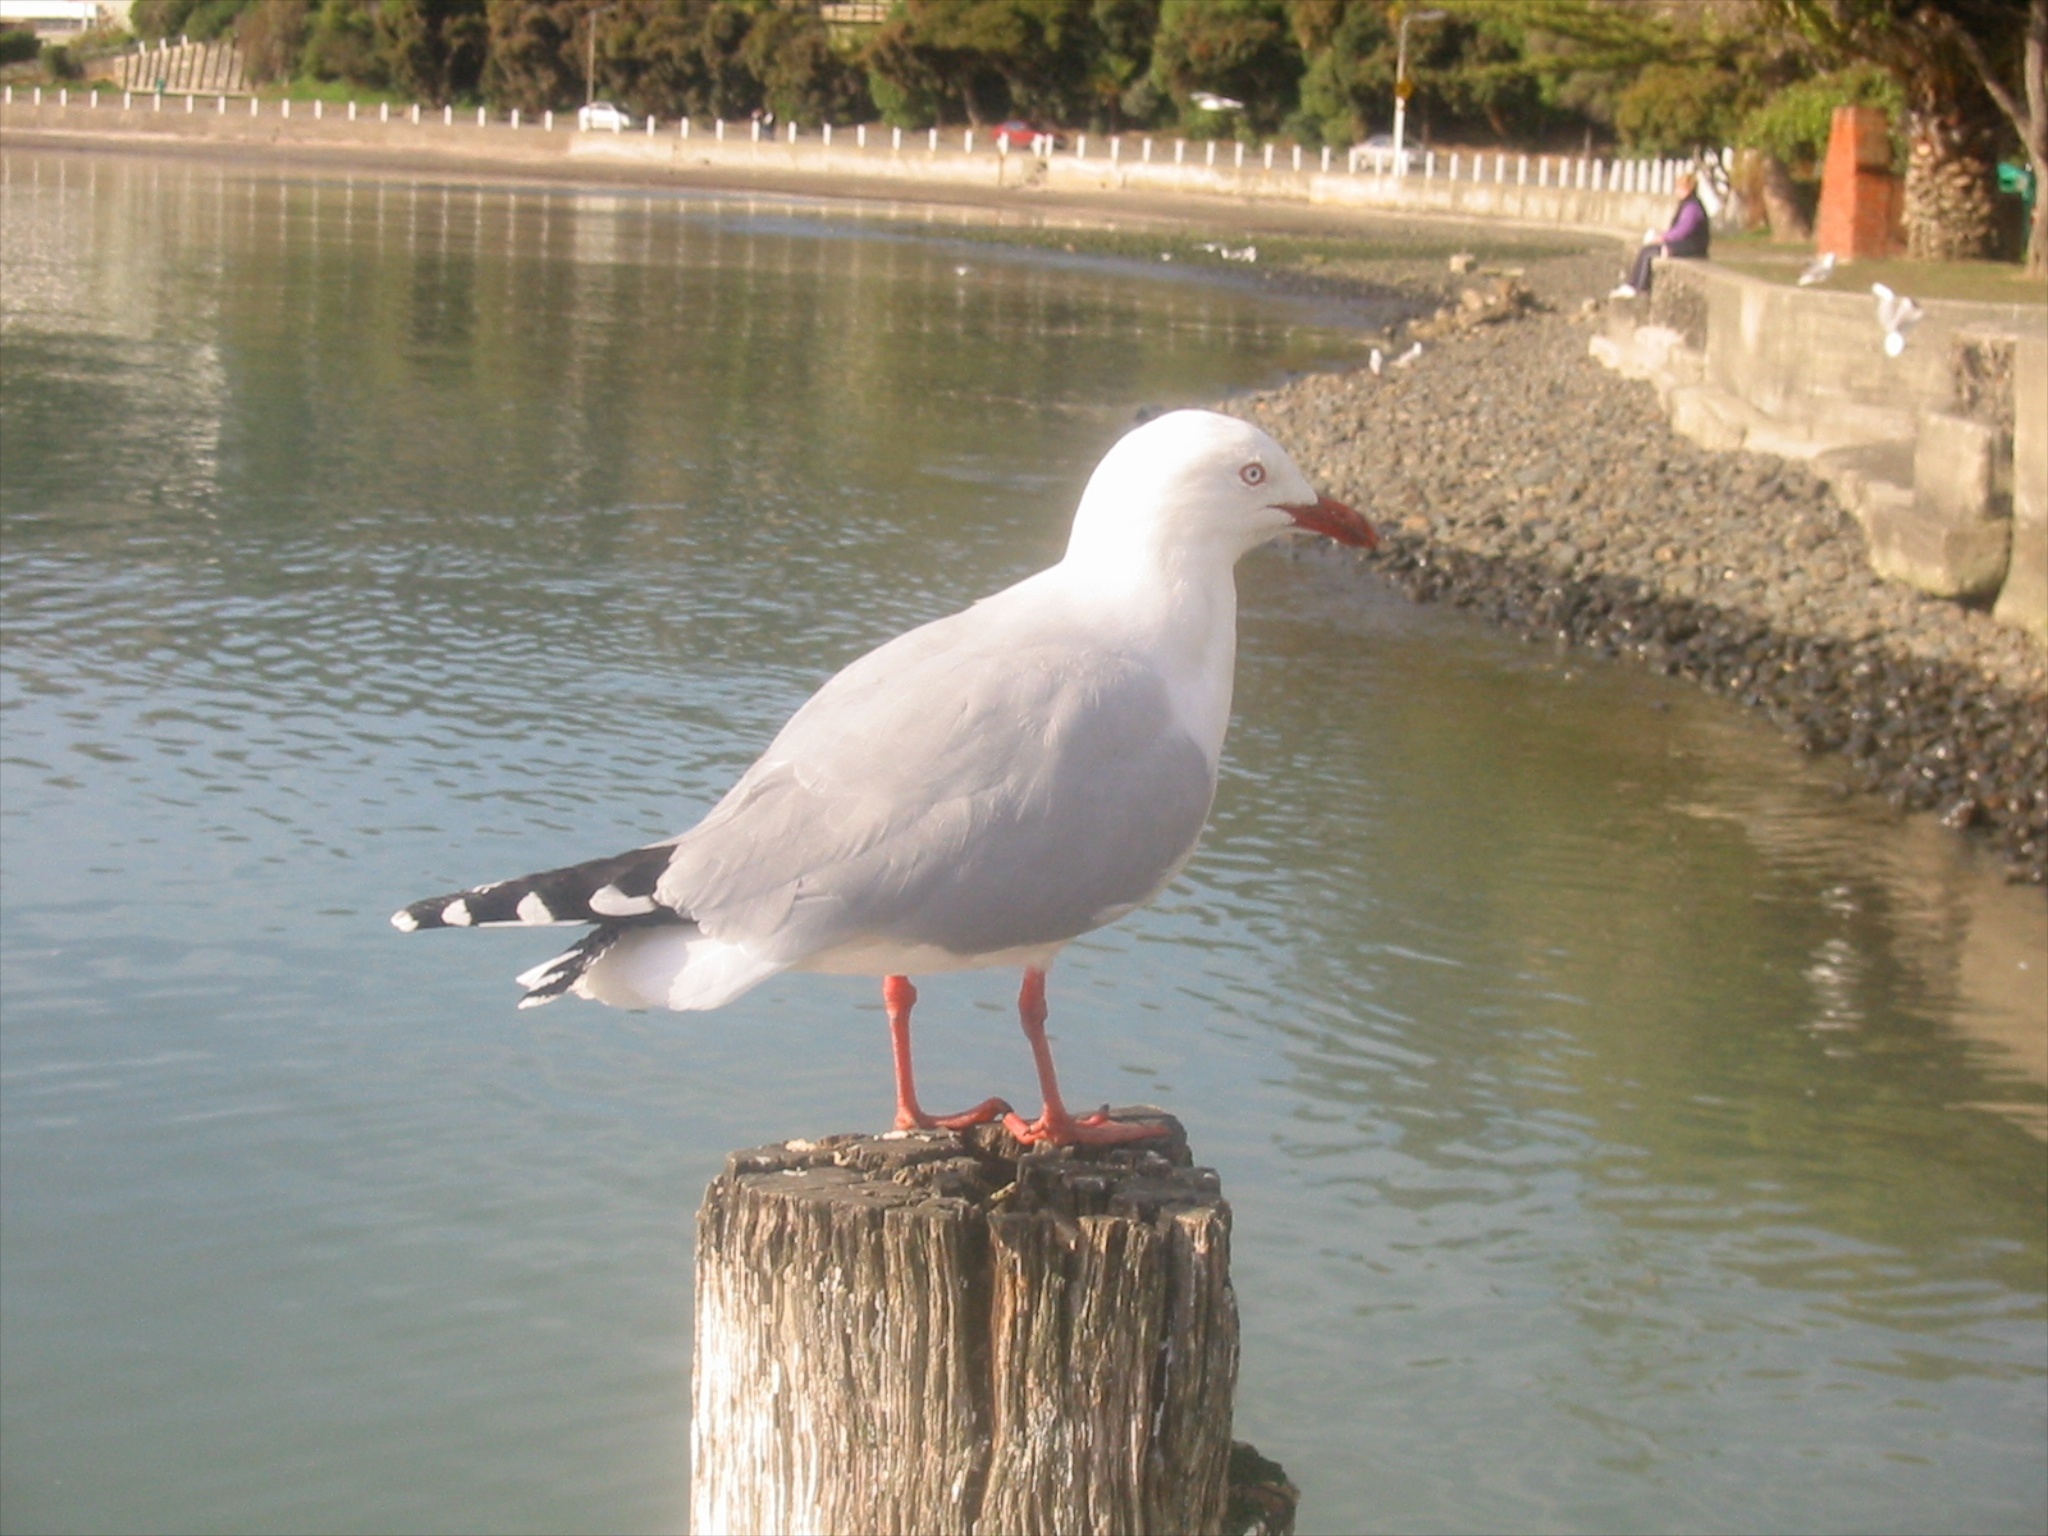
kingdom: Animalia
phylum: Chordata
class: Aves
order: Charadriiformes
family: Laridae
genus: Chroicocephalus
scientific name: Chroicocephalus novaehollandiae
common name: Silver gull
